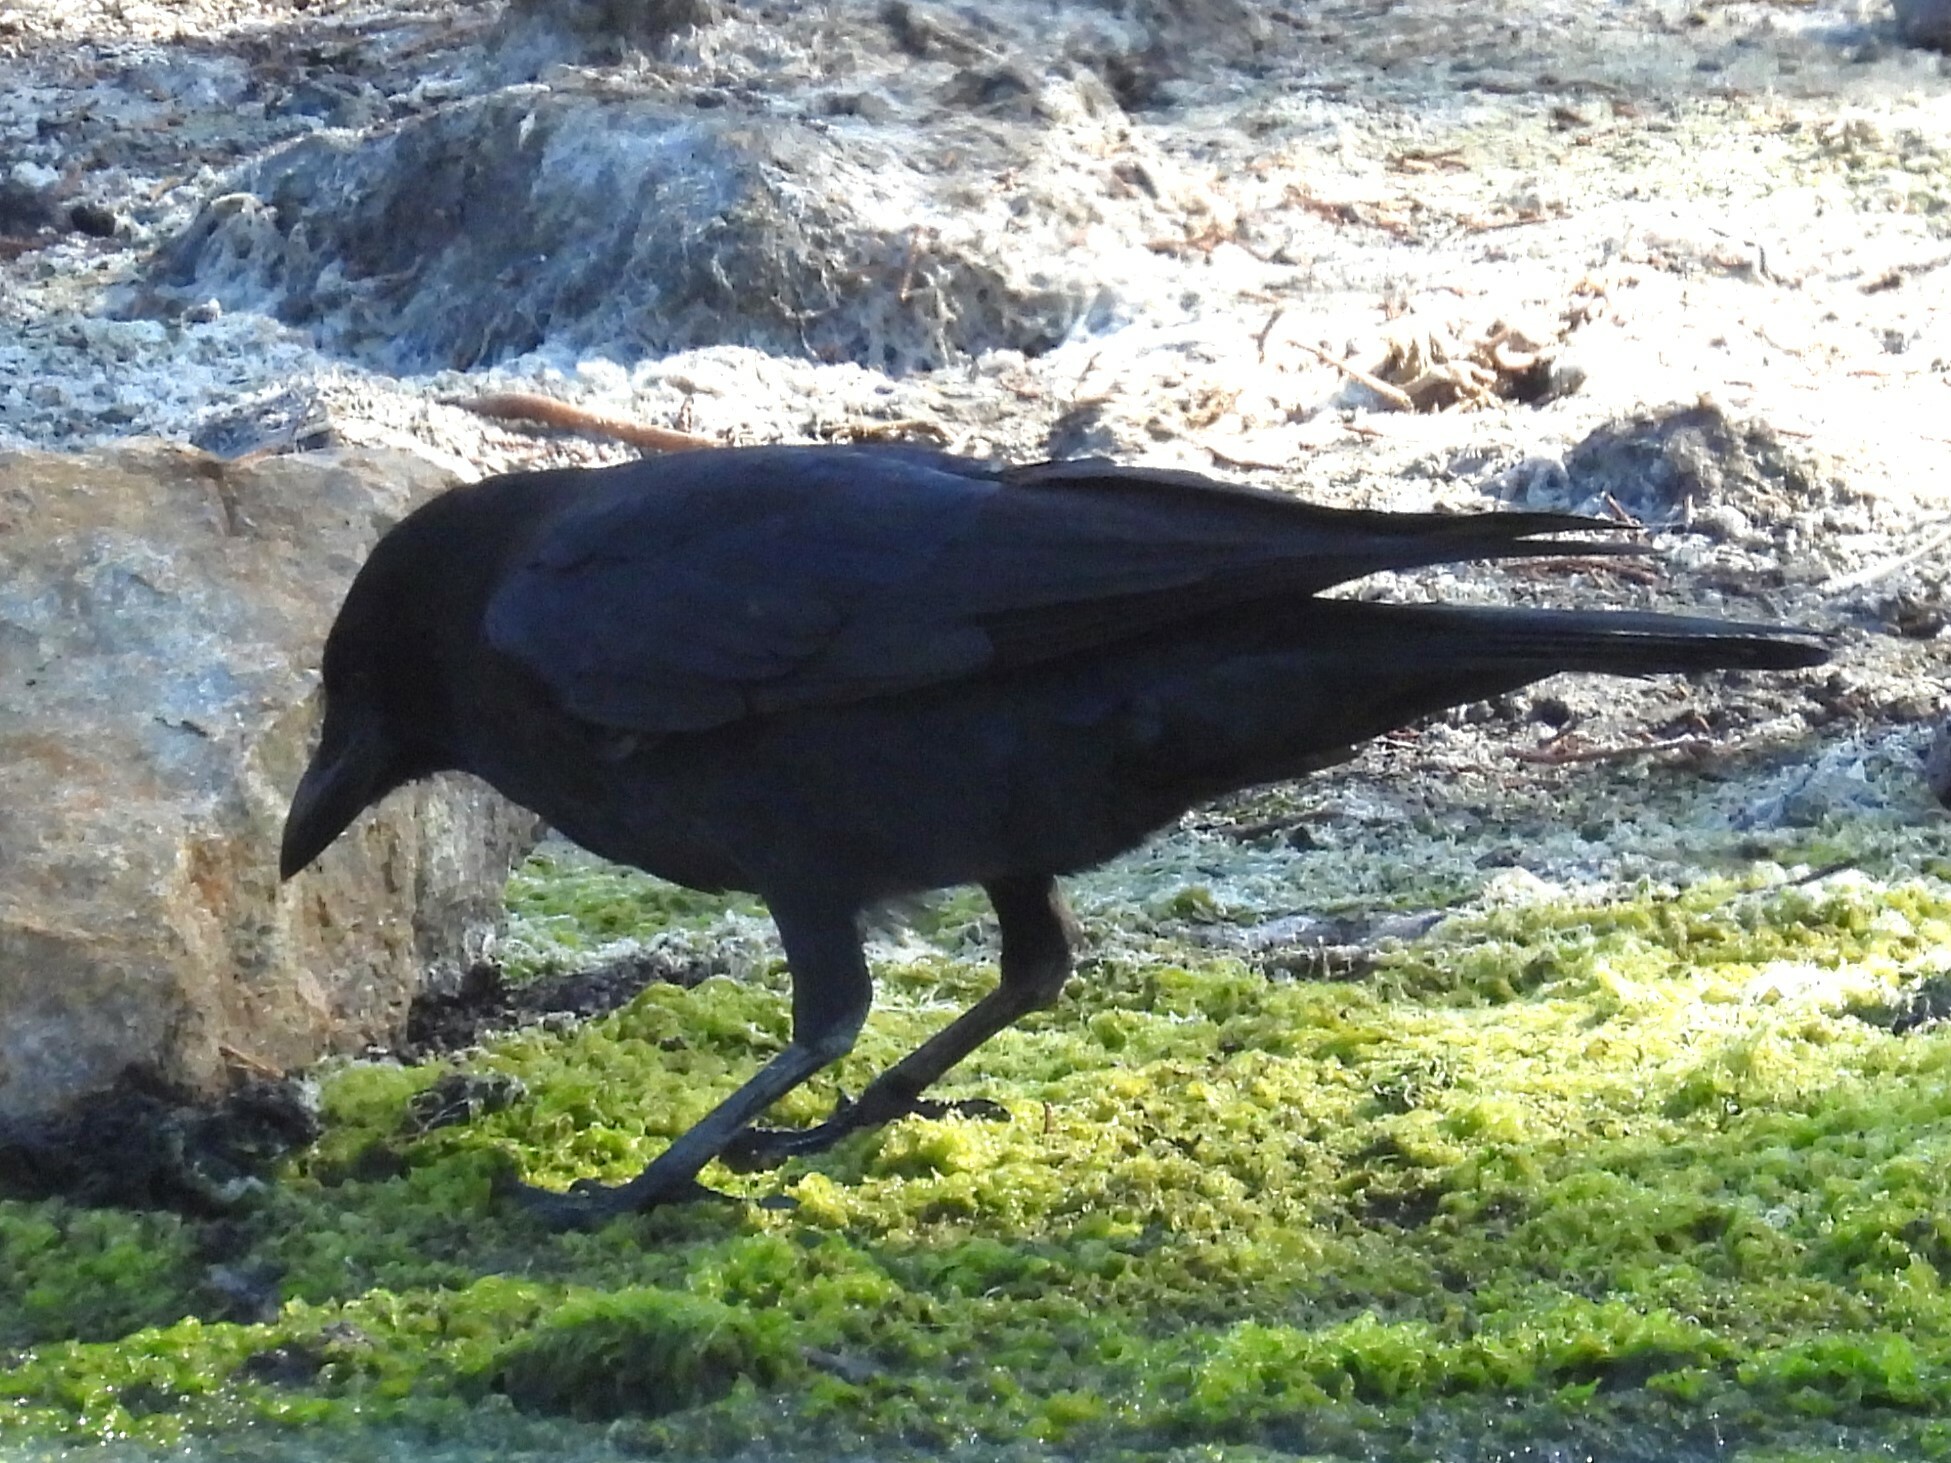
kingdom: Animalia
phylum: Chordata
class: Aves
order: Passeriformes
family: Corvidae
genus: Corvus
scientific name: Corvus brachyrhynchos
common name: American crow
